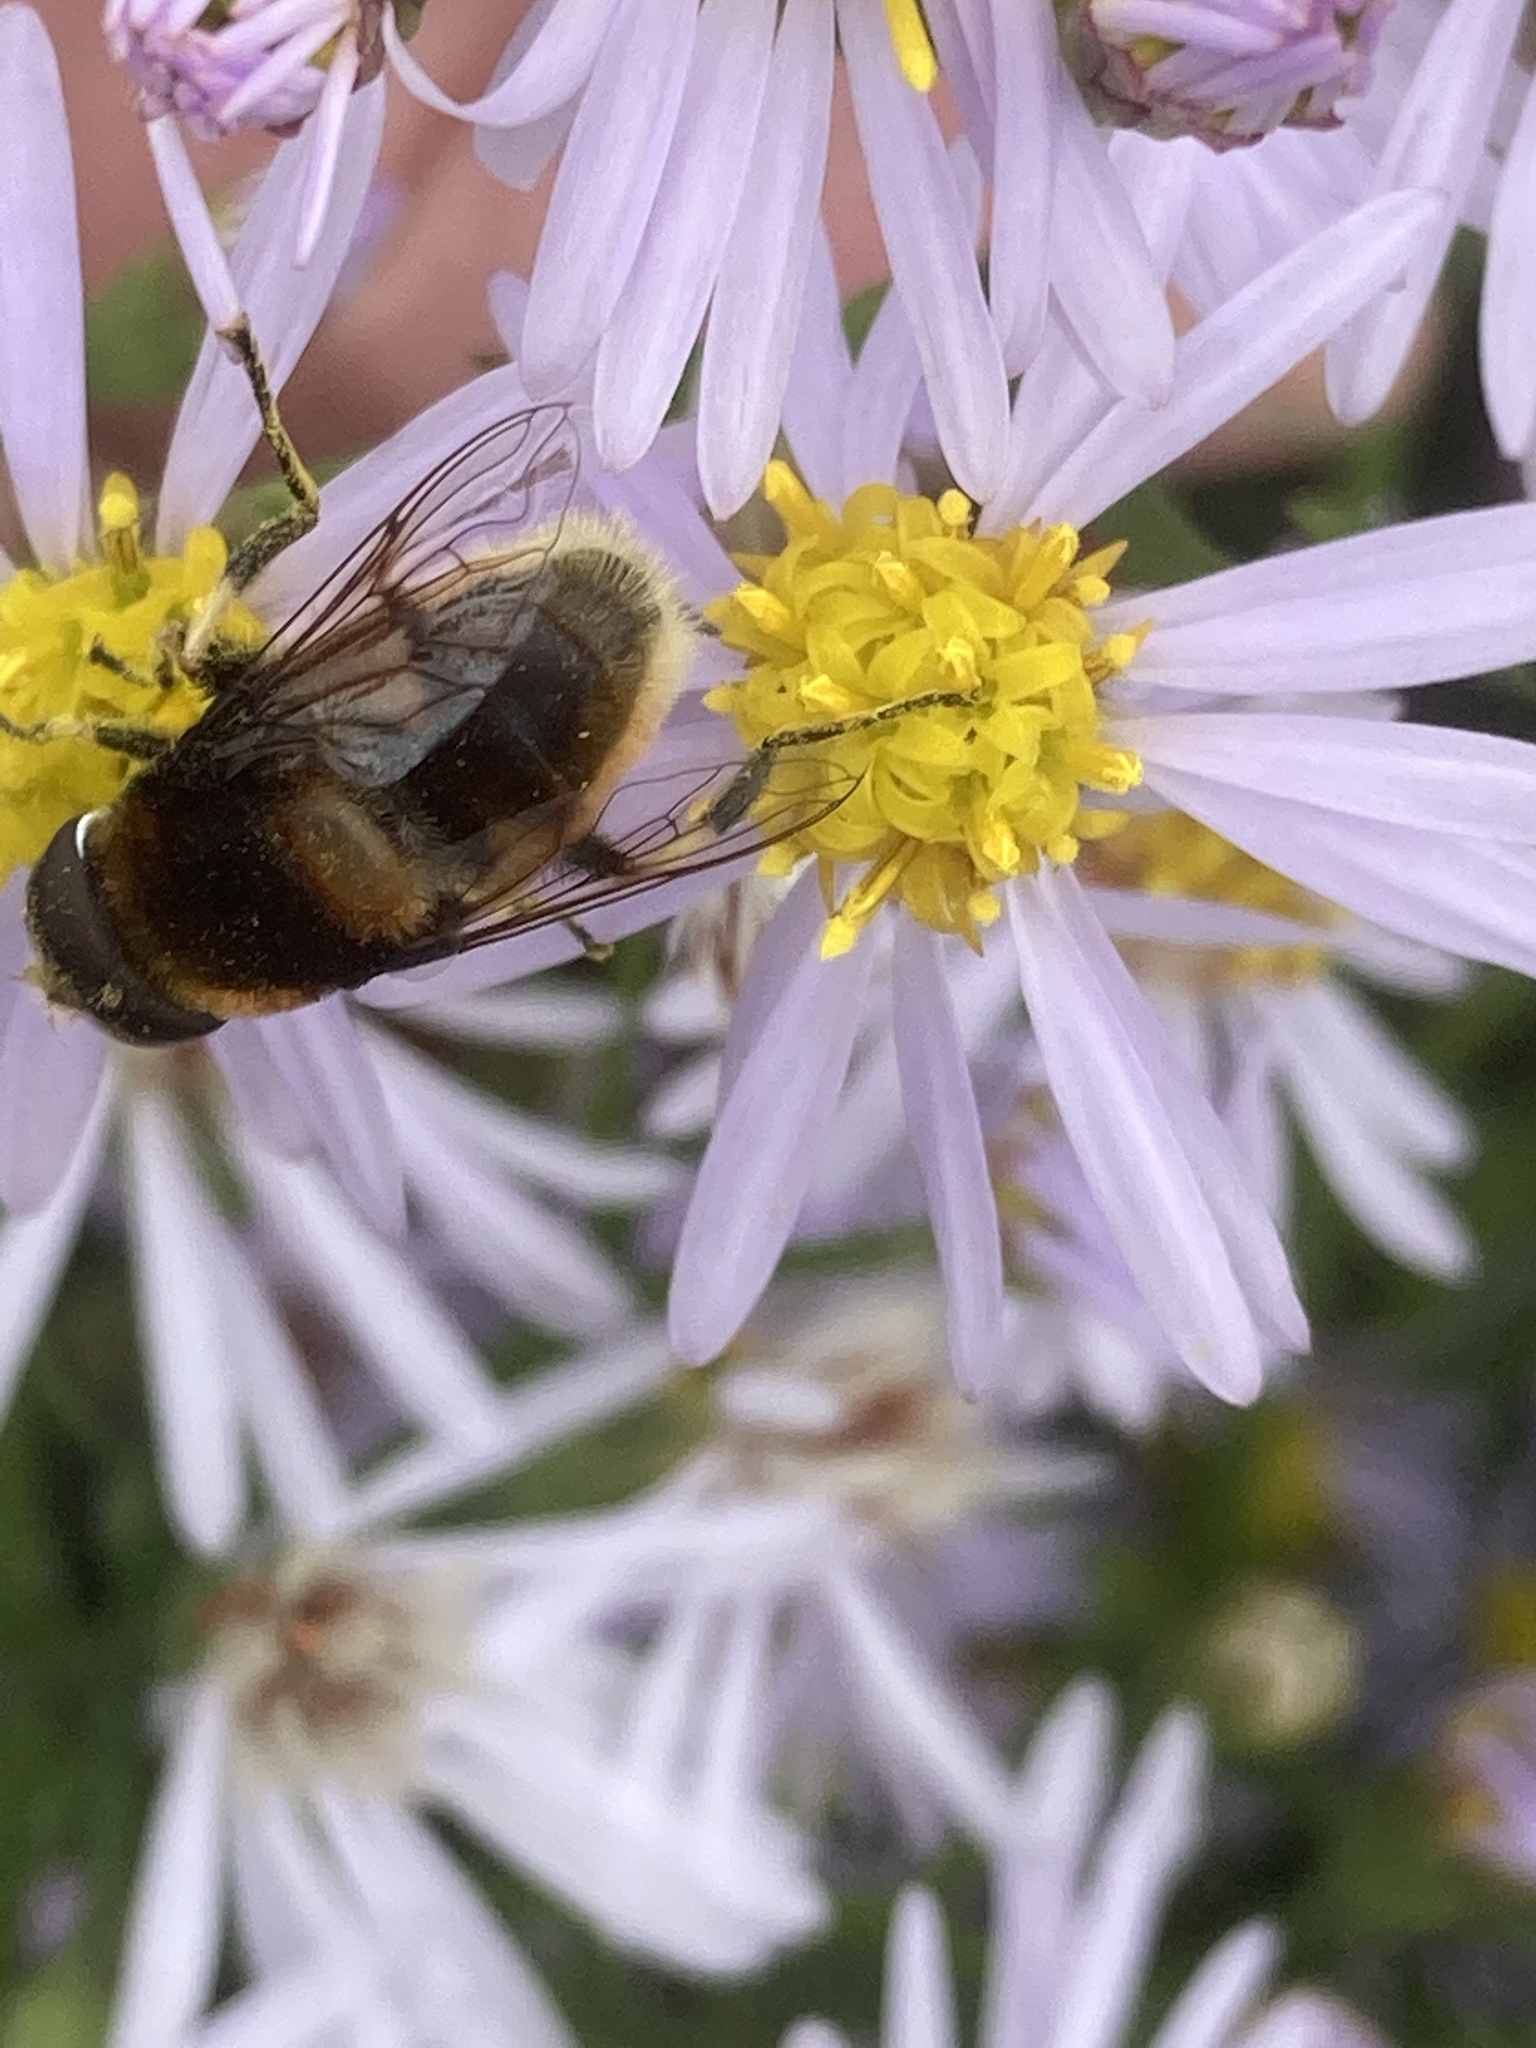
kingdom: Animalia
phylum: Arthropoda
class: Insecta
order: Diptera
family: Syrphidae
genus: Eristalis
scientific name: Eristalis intricaria
